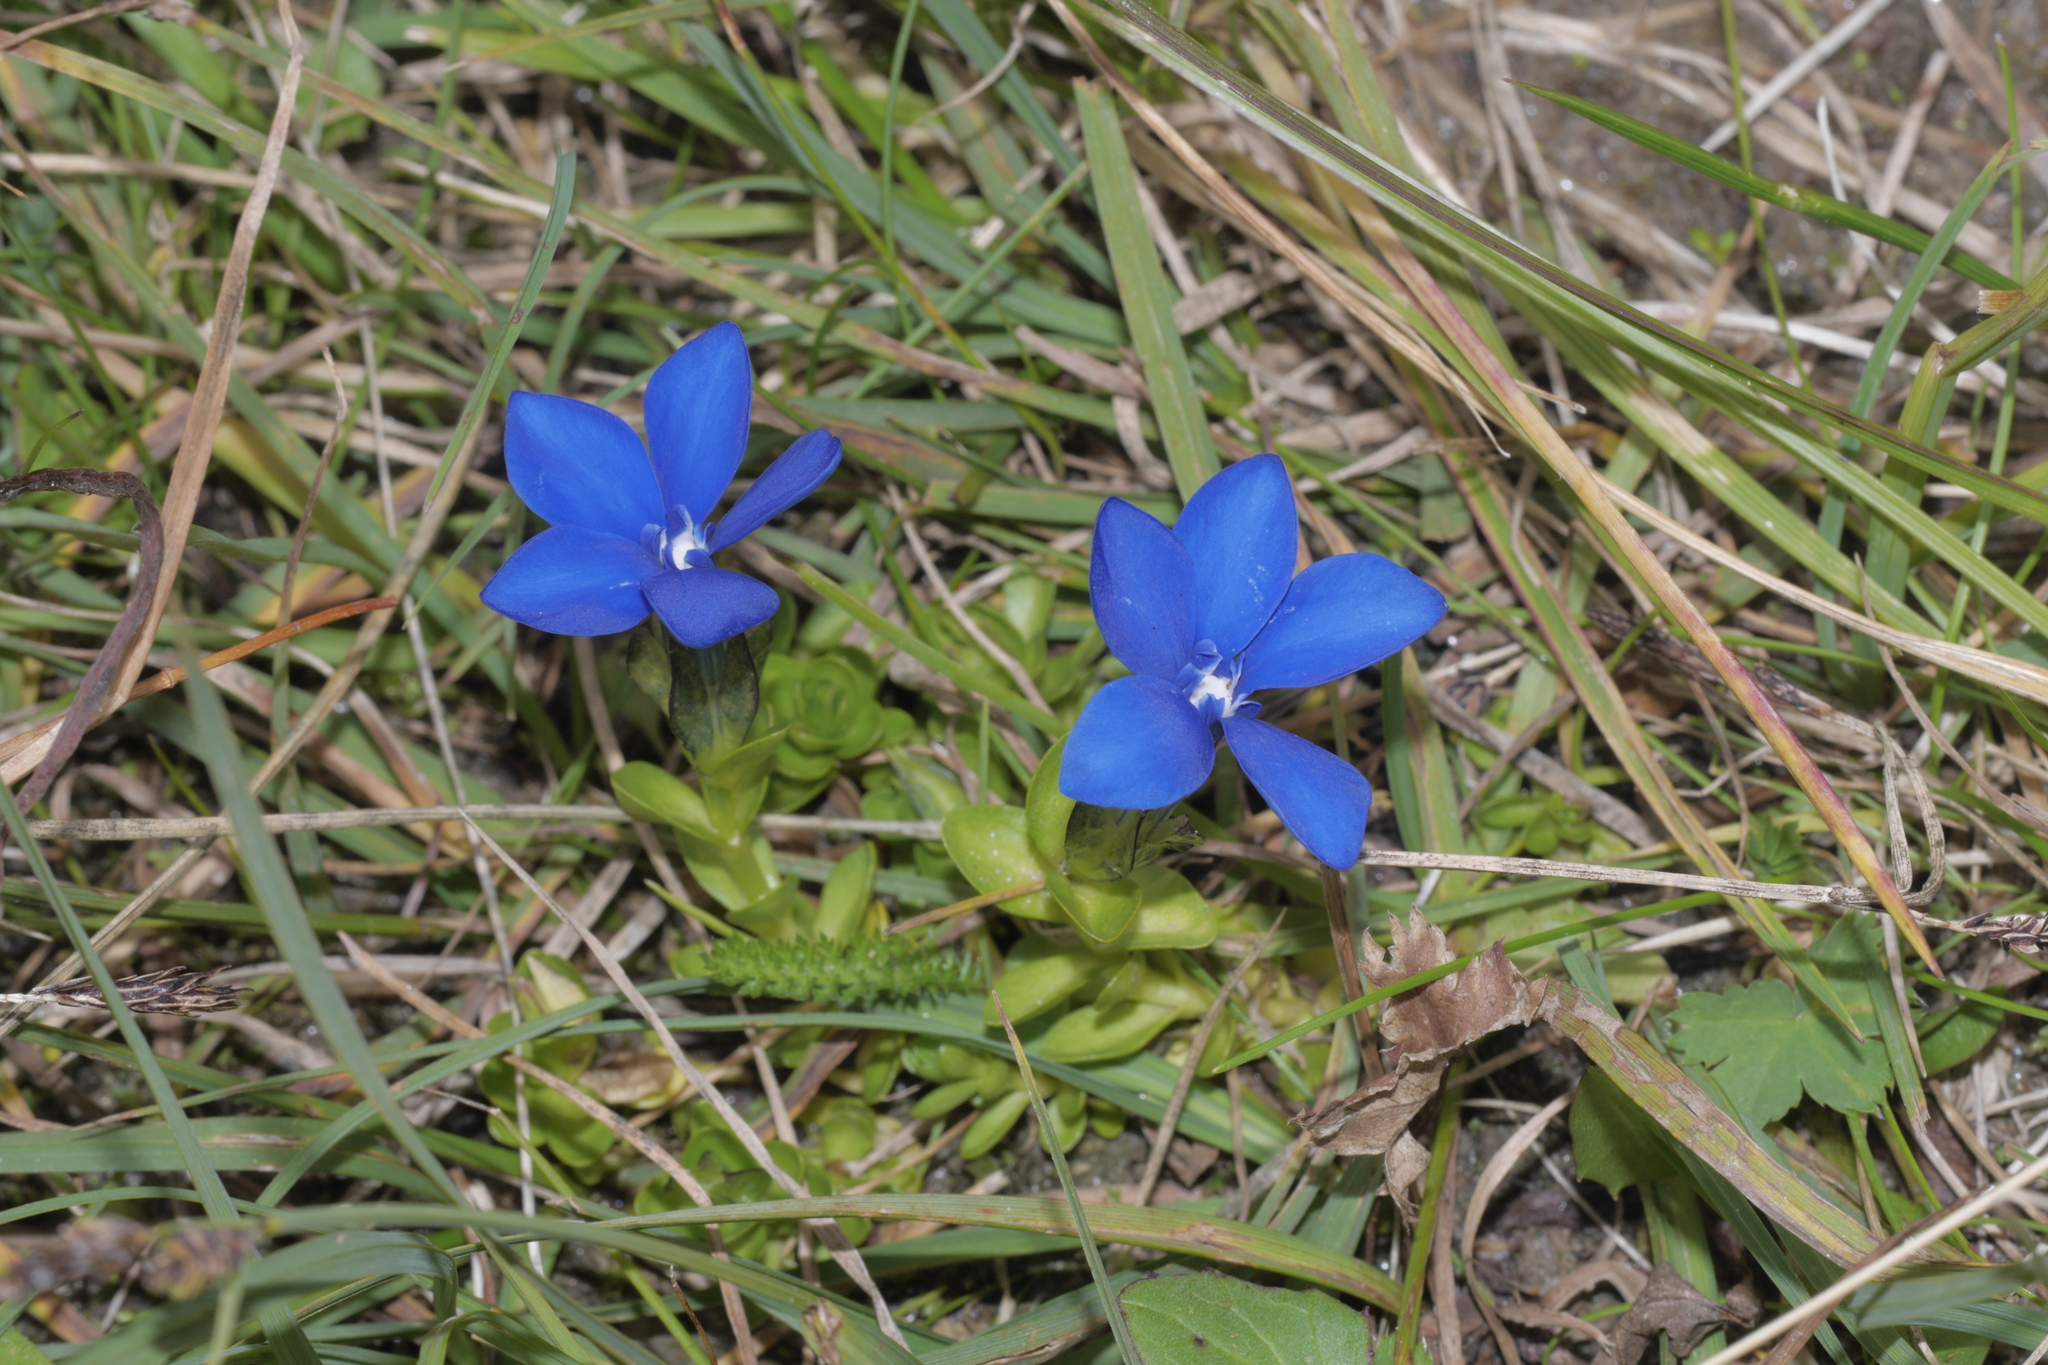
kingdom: Plantae
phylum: Tracheophyta
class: Magnoliopsida
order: Gentianales
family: Gentianaceae
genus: Gentiana
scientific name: Gentiana bavarica
